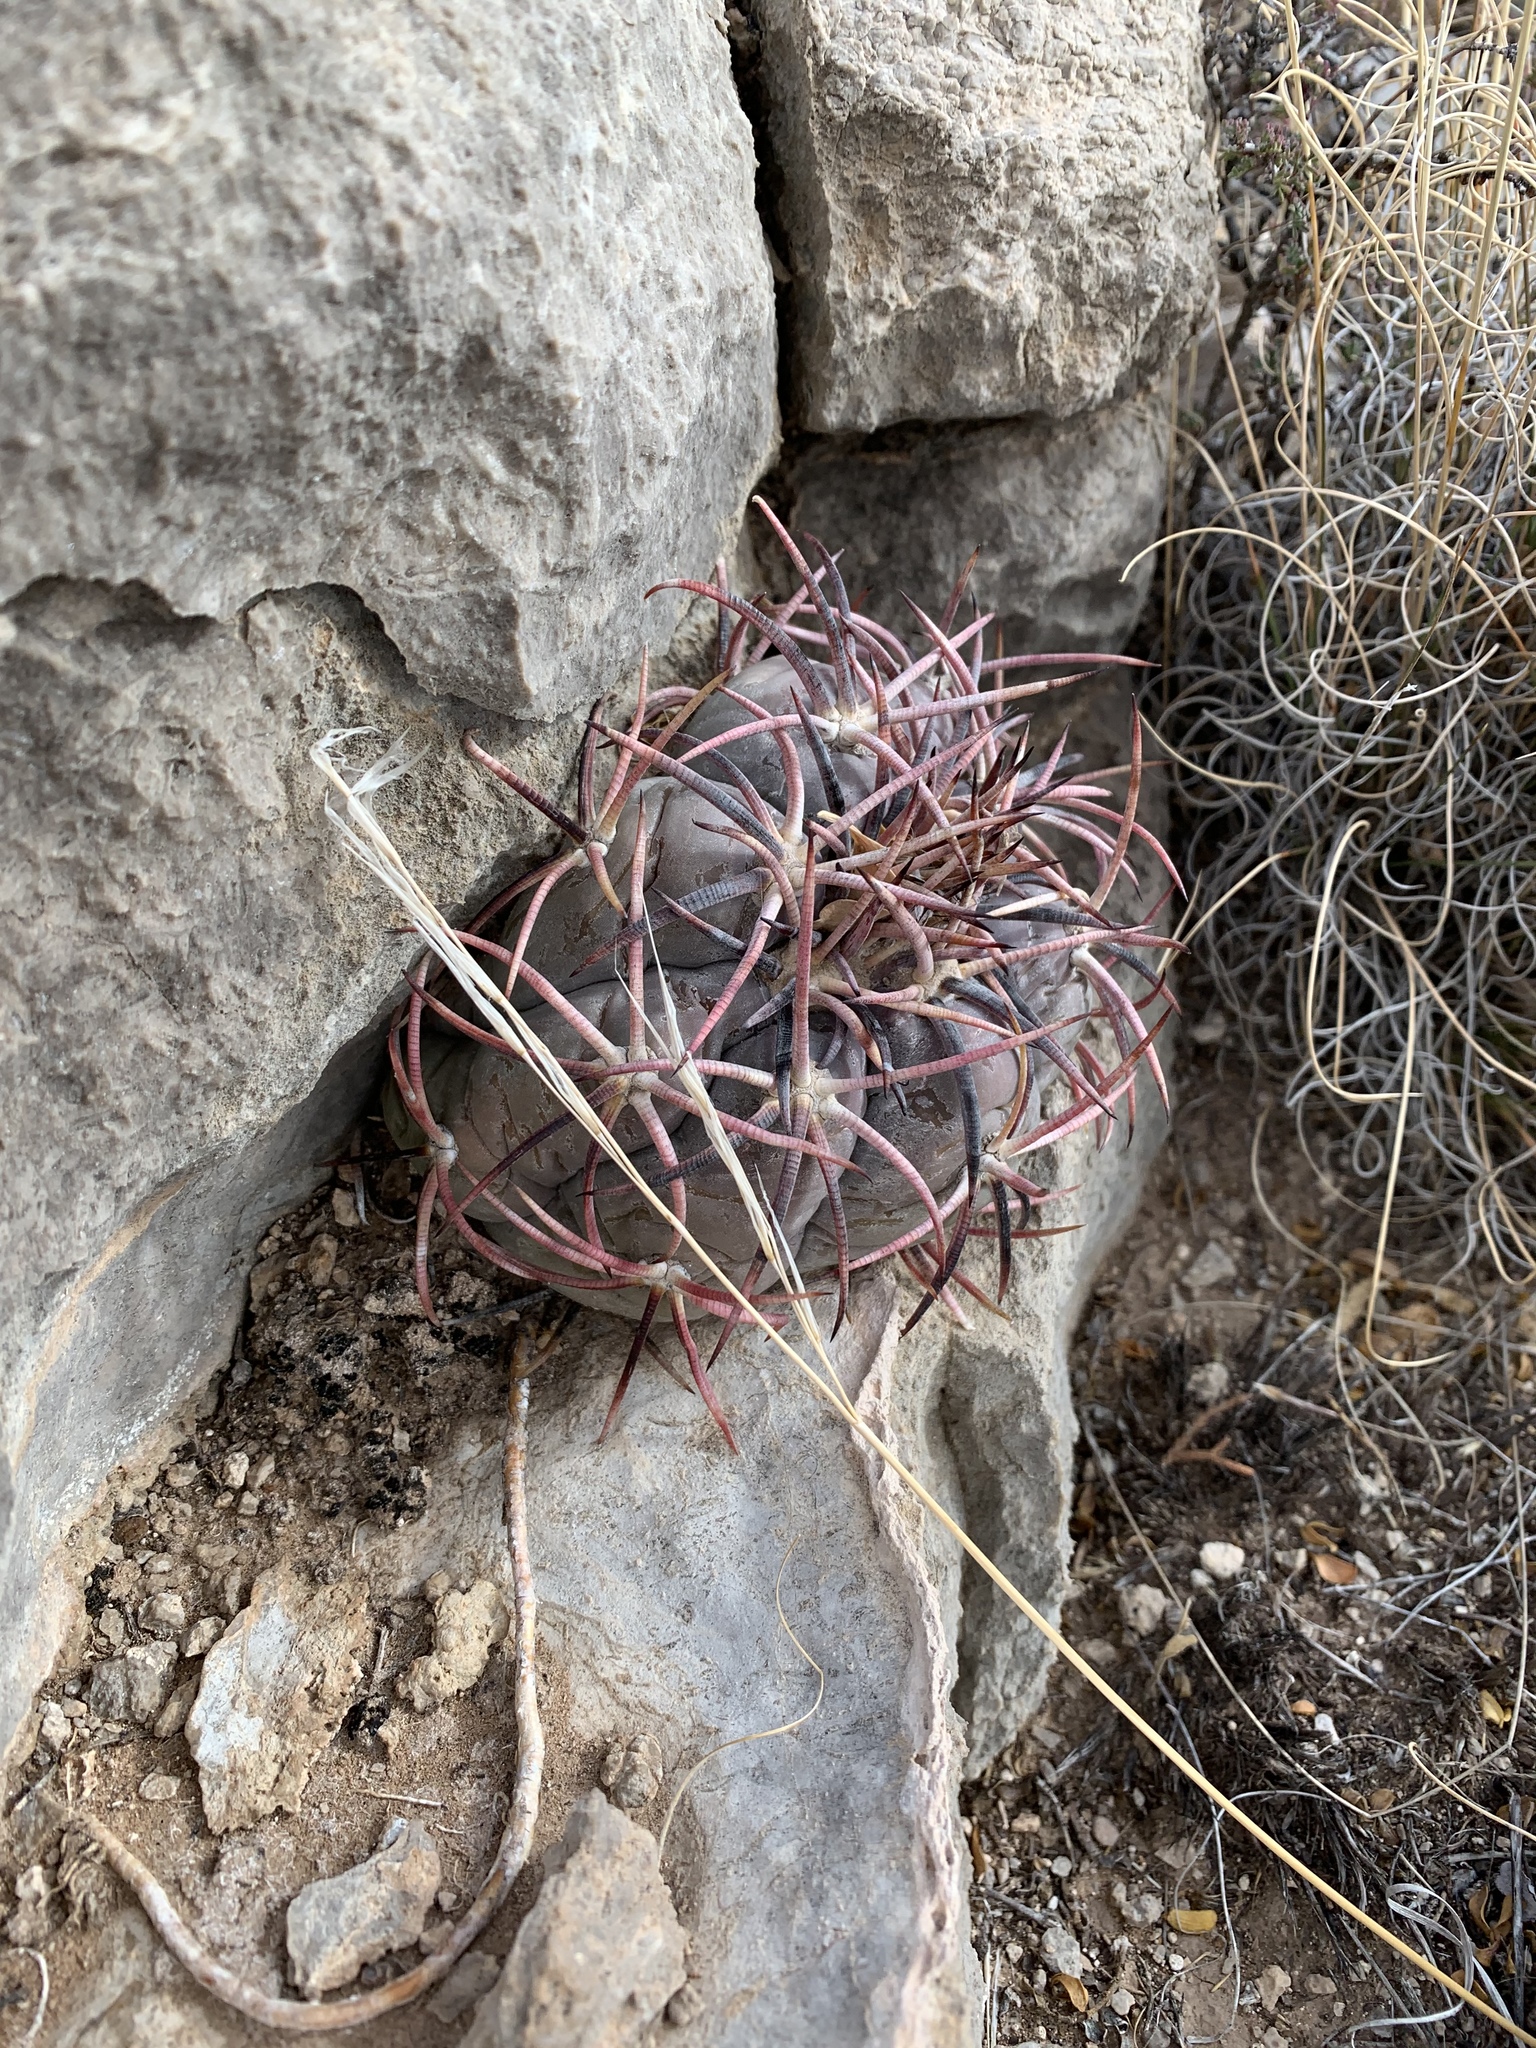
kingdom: Plantae
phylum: Tracheophyta
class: Magnoliopsida
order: Caryophyllales
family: Cactaceae
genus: Echinocactus
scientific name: Echinocactus horizonthalonius
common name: Devilshead
